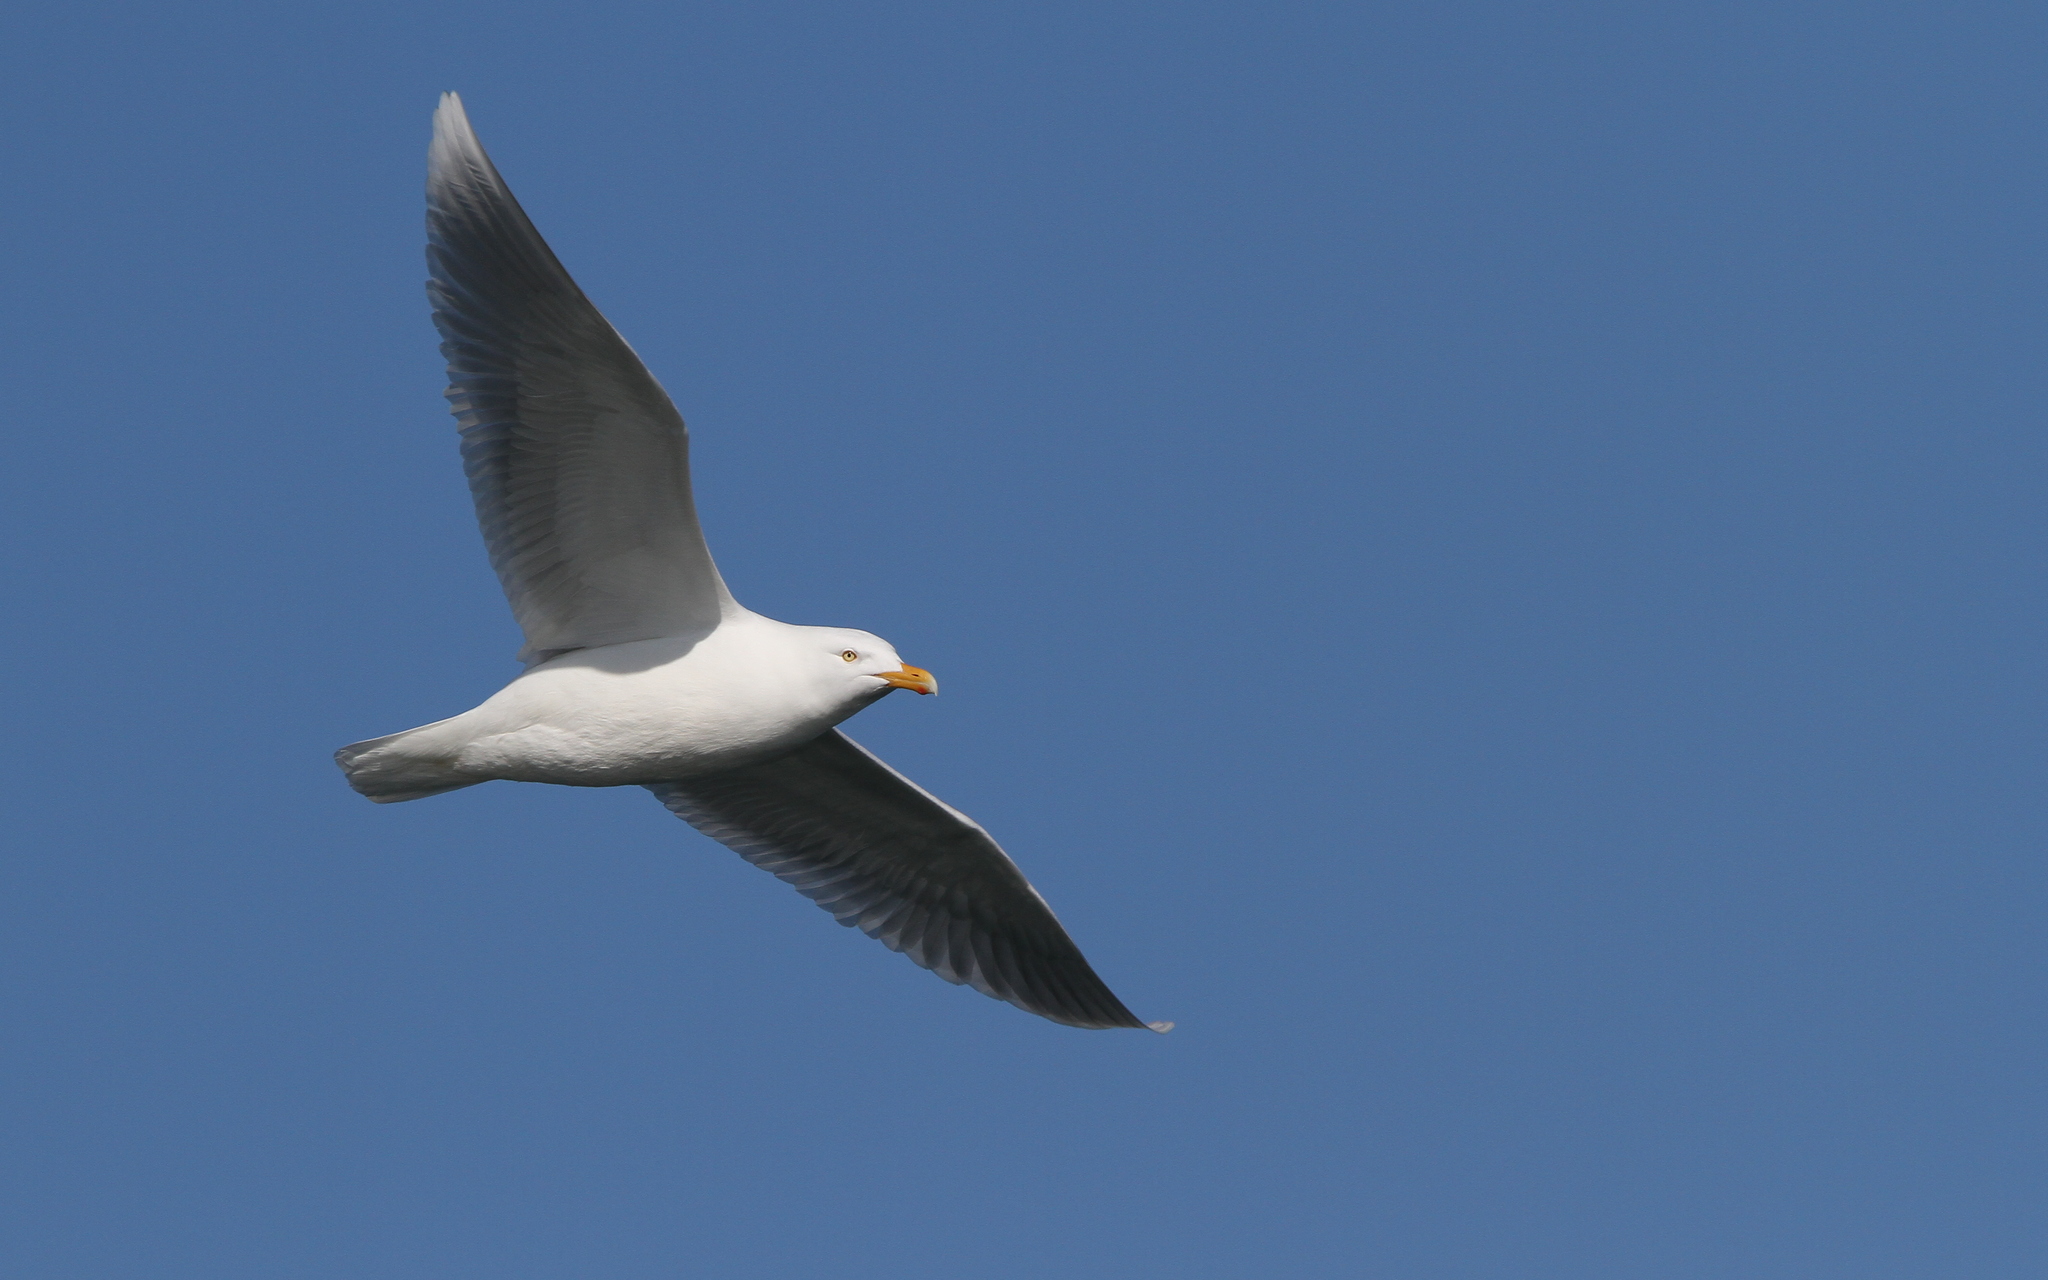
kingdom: Animalia
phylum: Chordata
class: Aves
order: Charadriiformes
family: Laridae
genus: Larus
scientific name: Larus hyperboreus
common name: Glaucous gull
